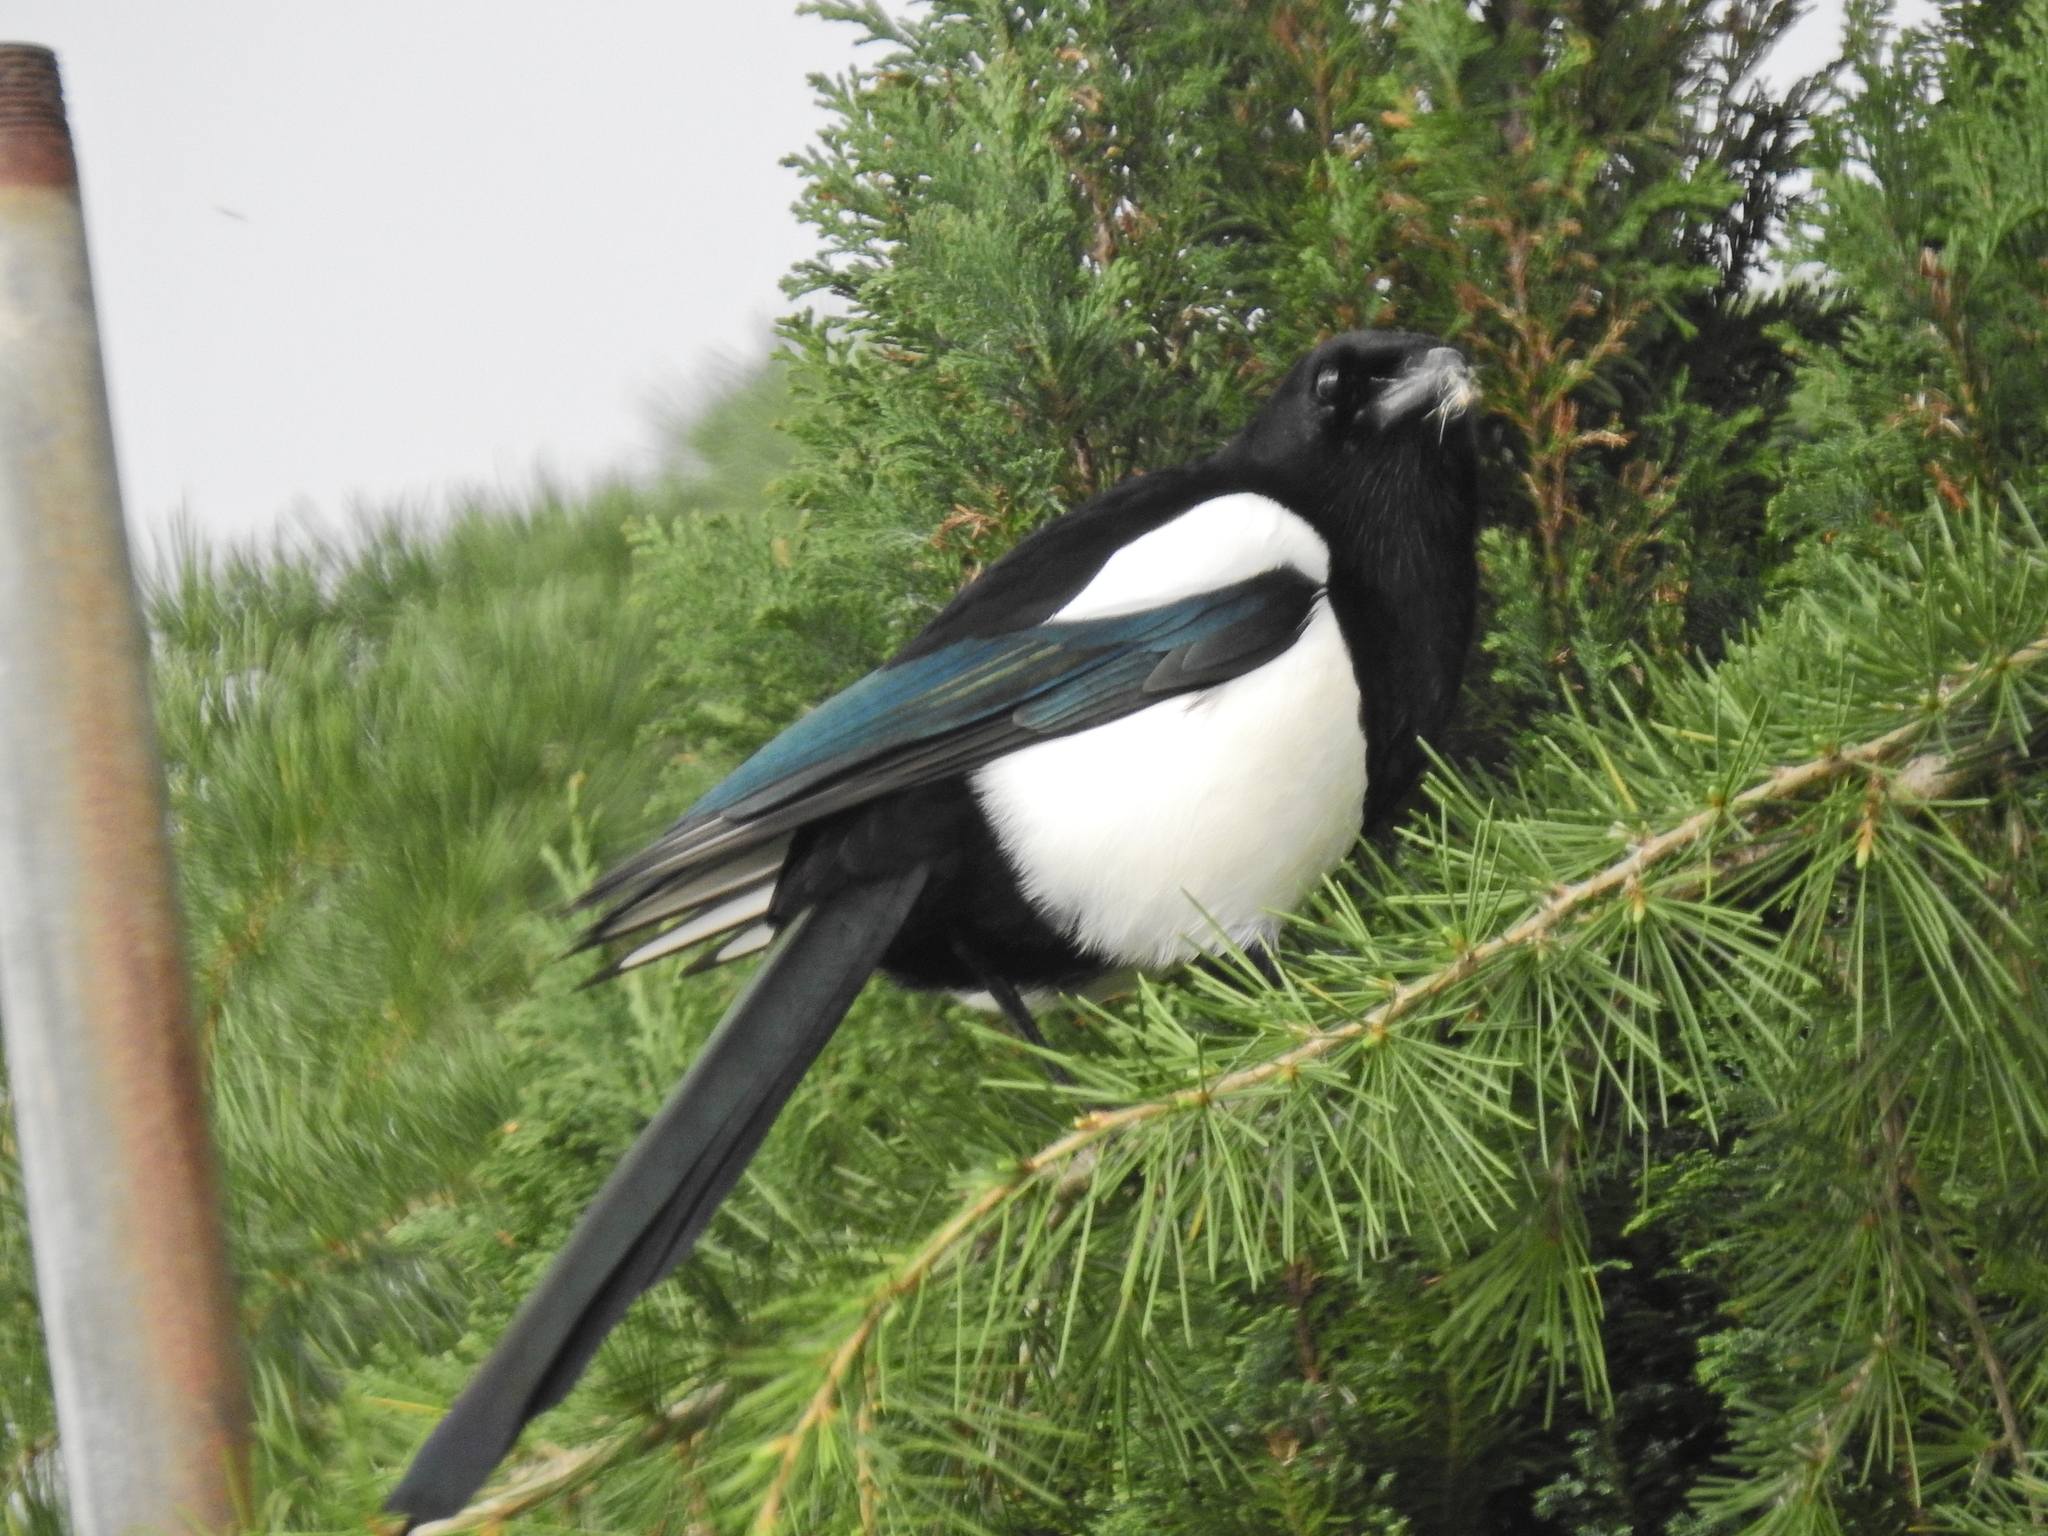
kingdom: Animalia
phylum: Chordata
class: Aves
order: Passeriformes
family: Corvidae
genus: Pica
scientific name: Pica pica
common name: Eurasian magpie
